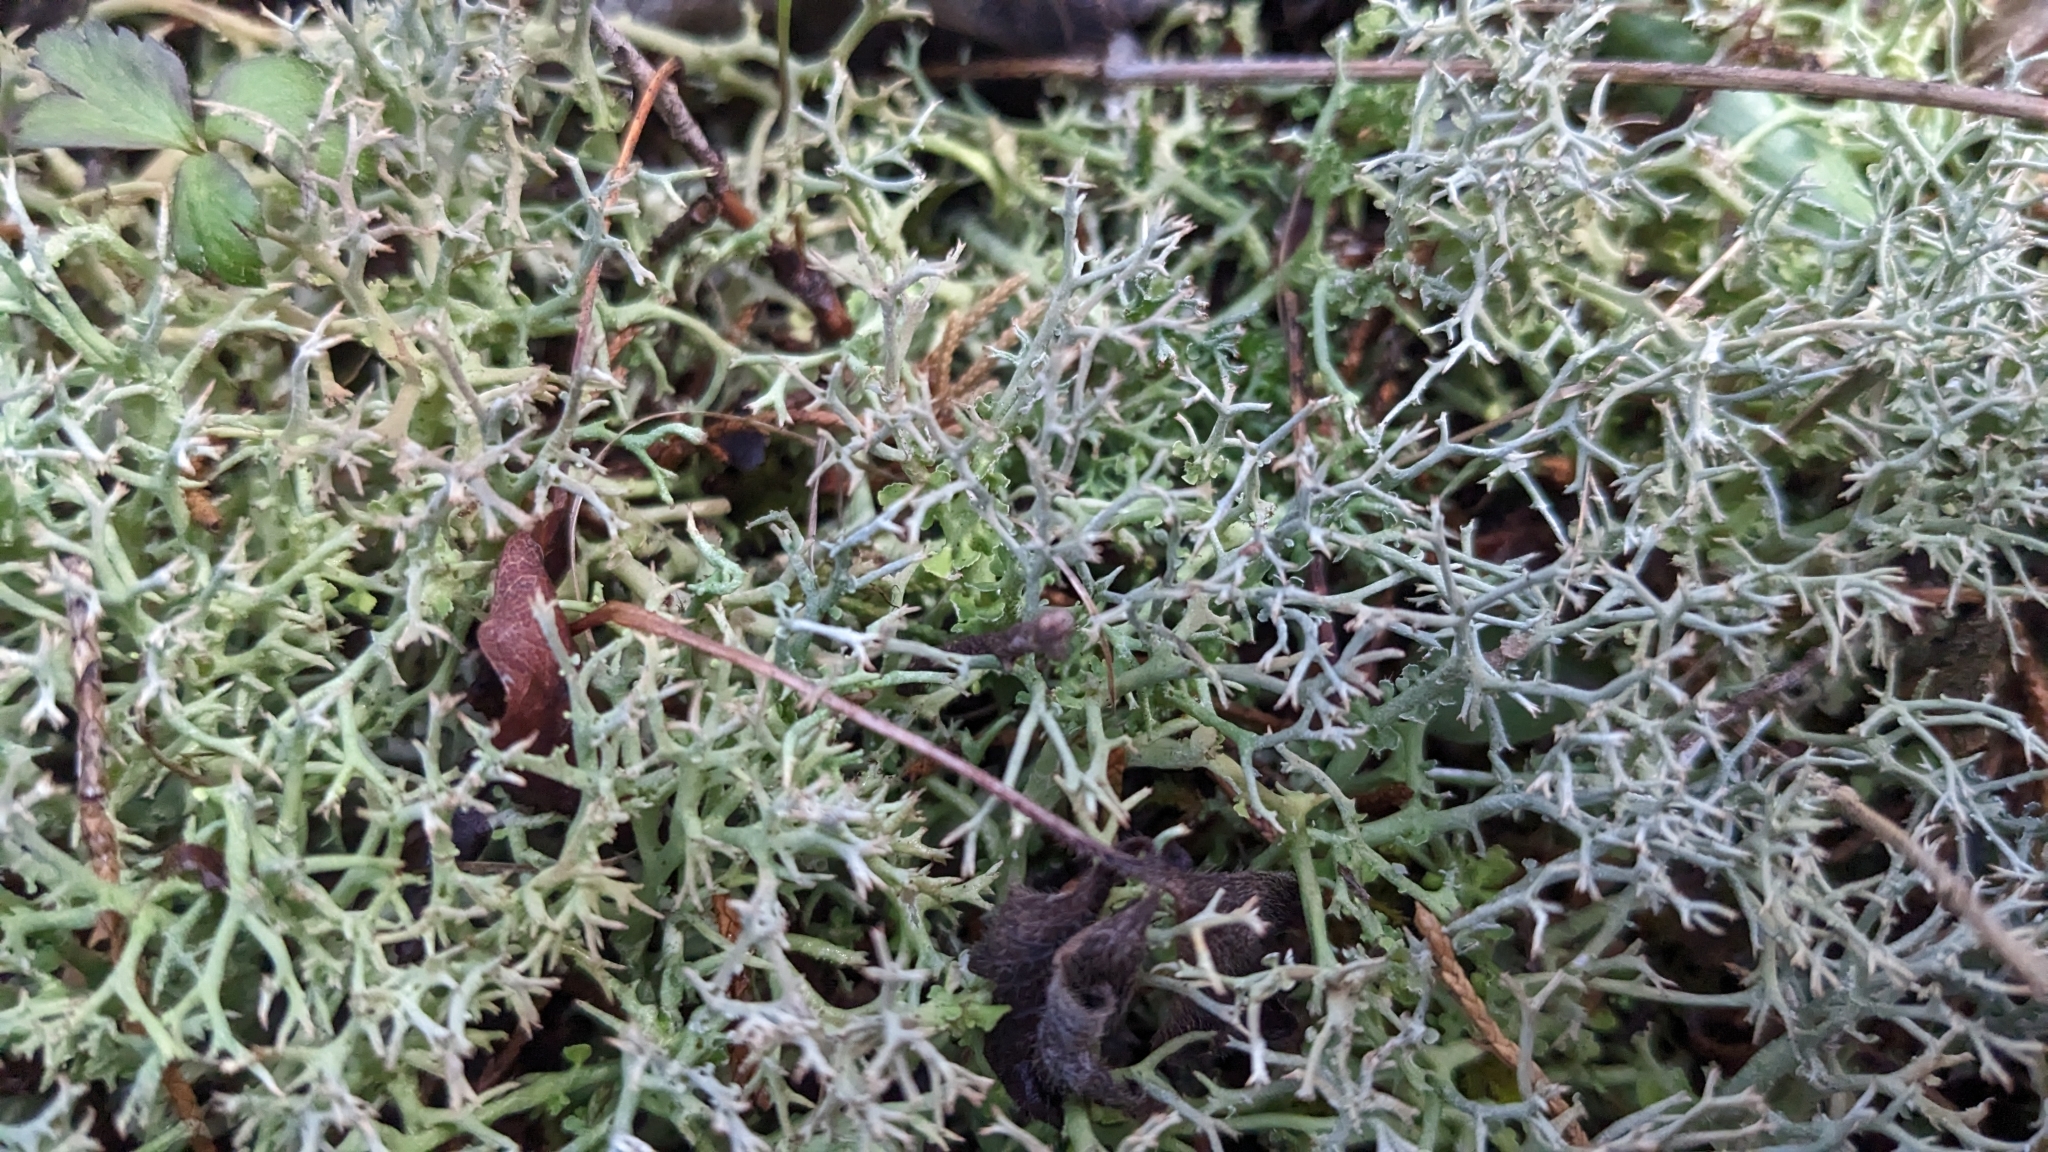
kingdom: Fungi
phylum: Ascomycota
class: Lecanoromycetes
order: Lecanorales
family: Cladoniaceae
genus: Cladonia
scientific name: Cladonia furcata
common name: Many-forked cladonia
